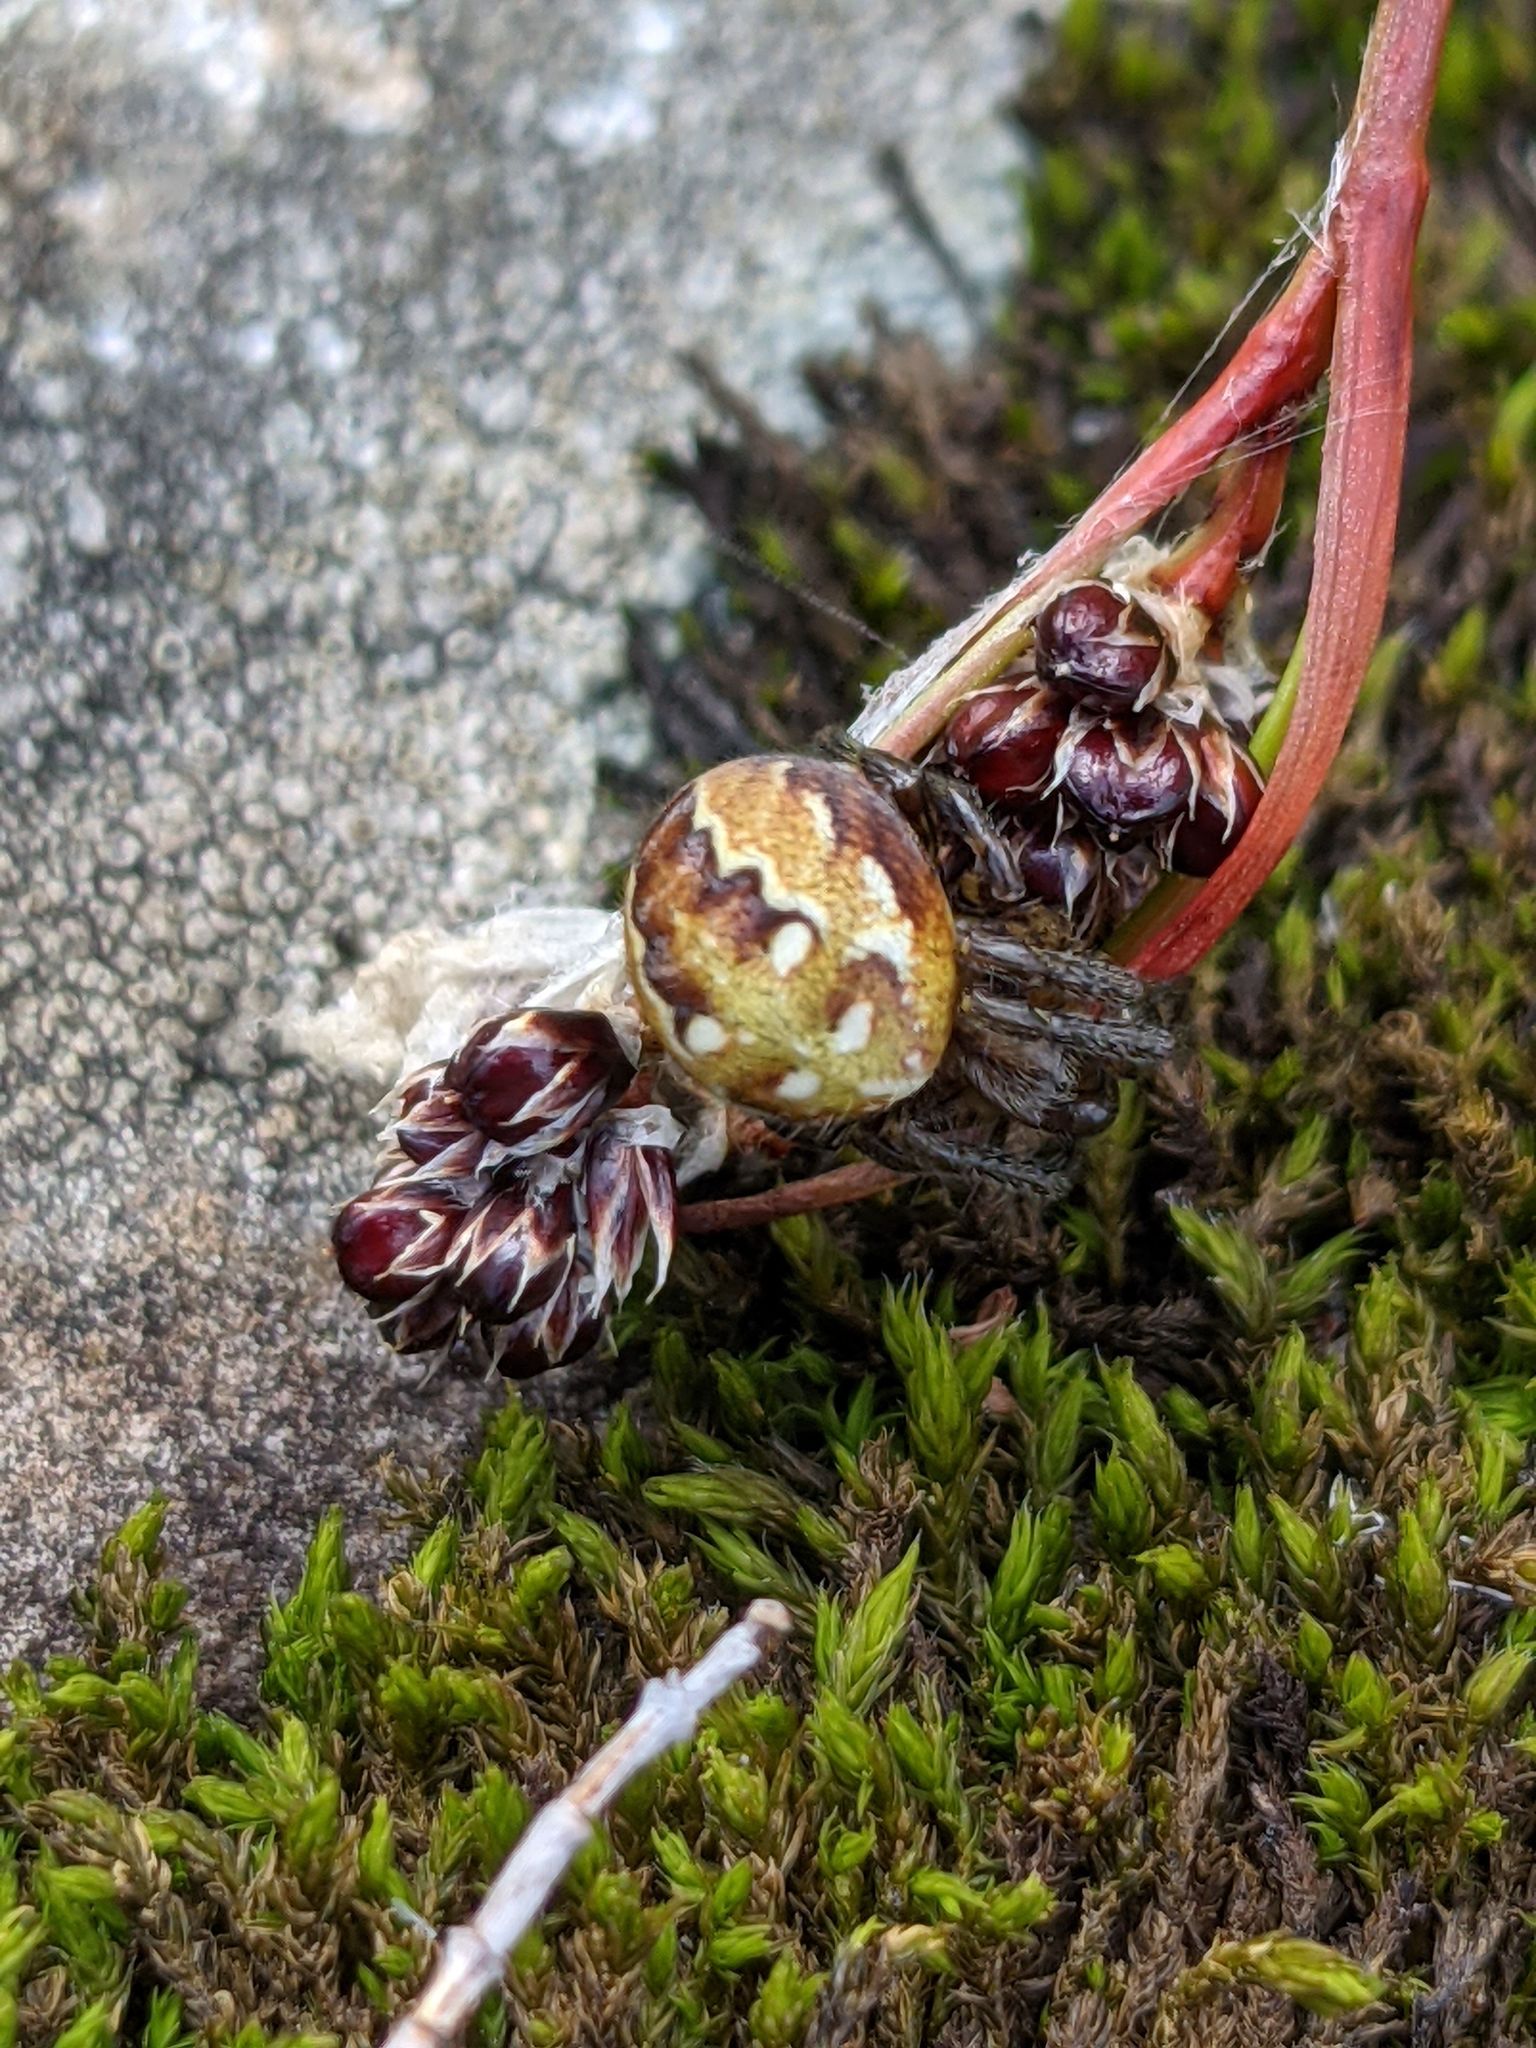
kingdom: Animalia
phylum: Arthropoda
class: Arachnida
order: Araneae
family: Araneidae
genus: Araneus
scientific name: Araneus quadratus
